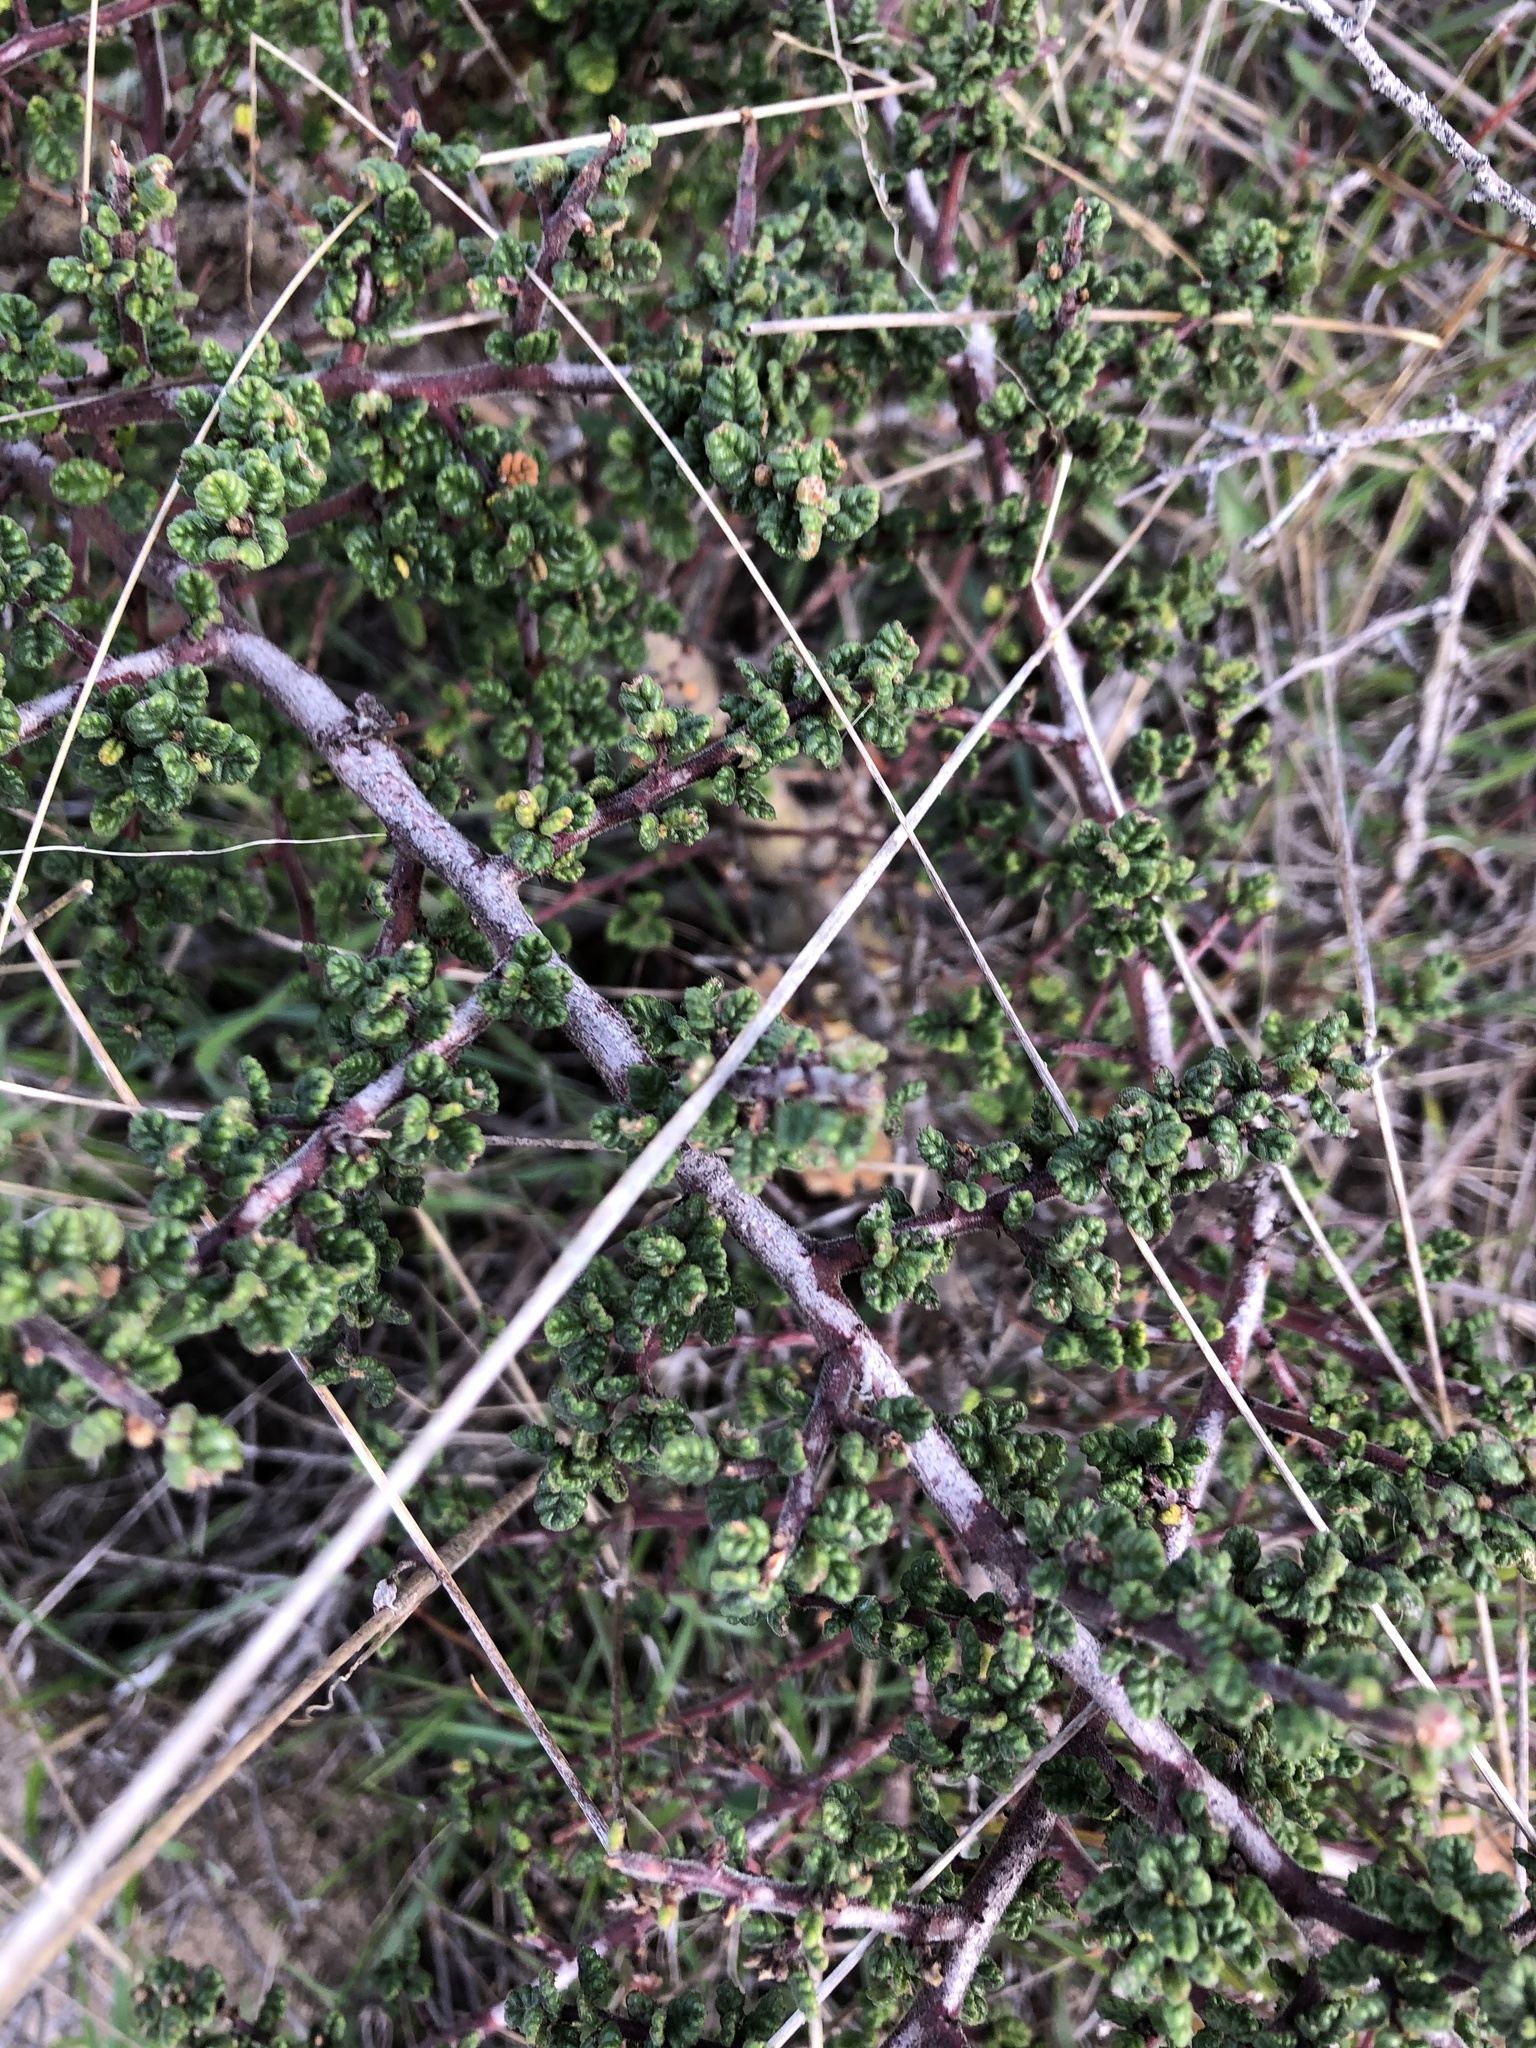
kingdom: Plantae
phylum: Tracheophyta
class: Magnoliopsida
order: Rosales
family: Rhamnaceae
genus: Ceanothus
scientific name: Ceanothus impressus
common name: Santa barbara ceanothus
